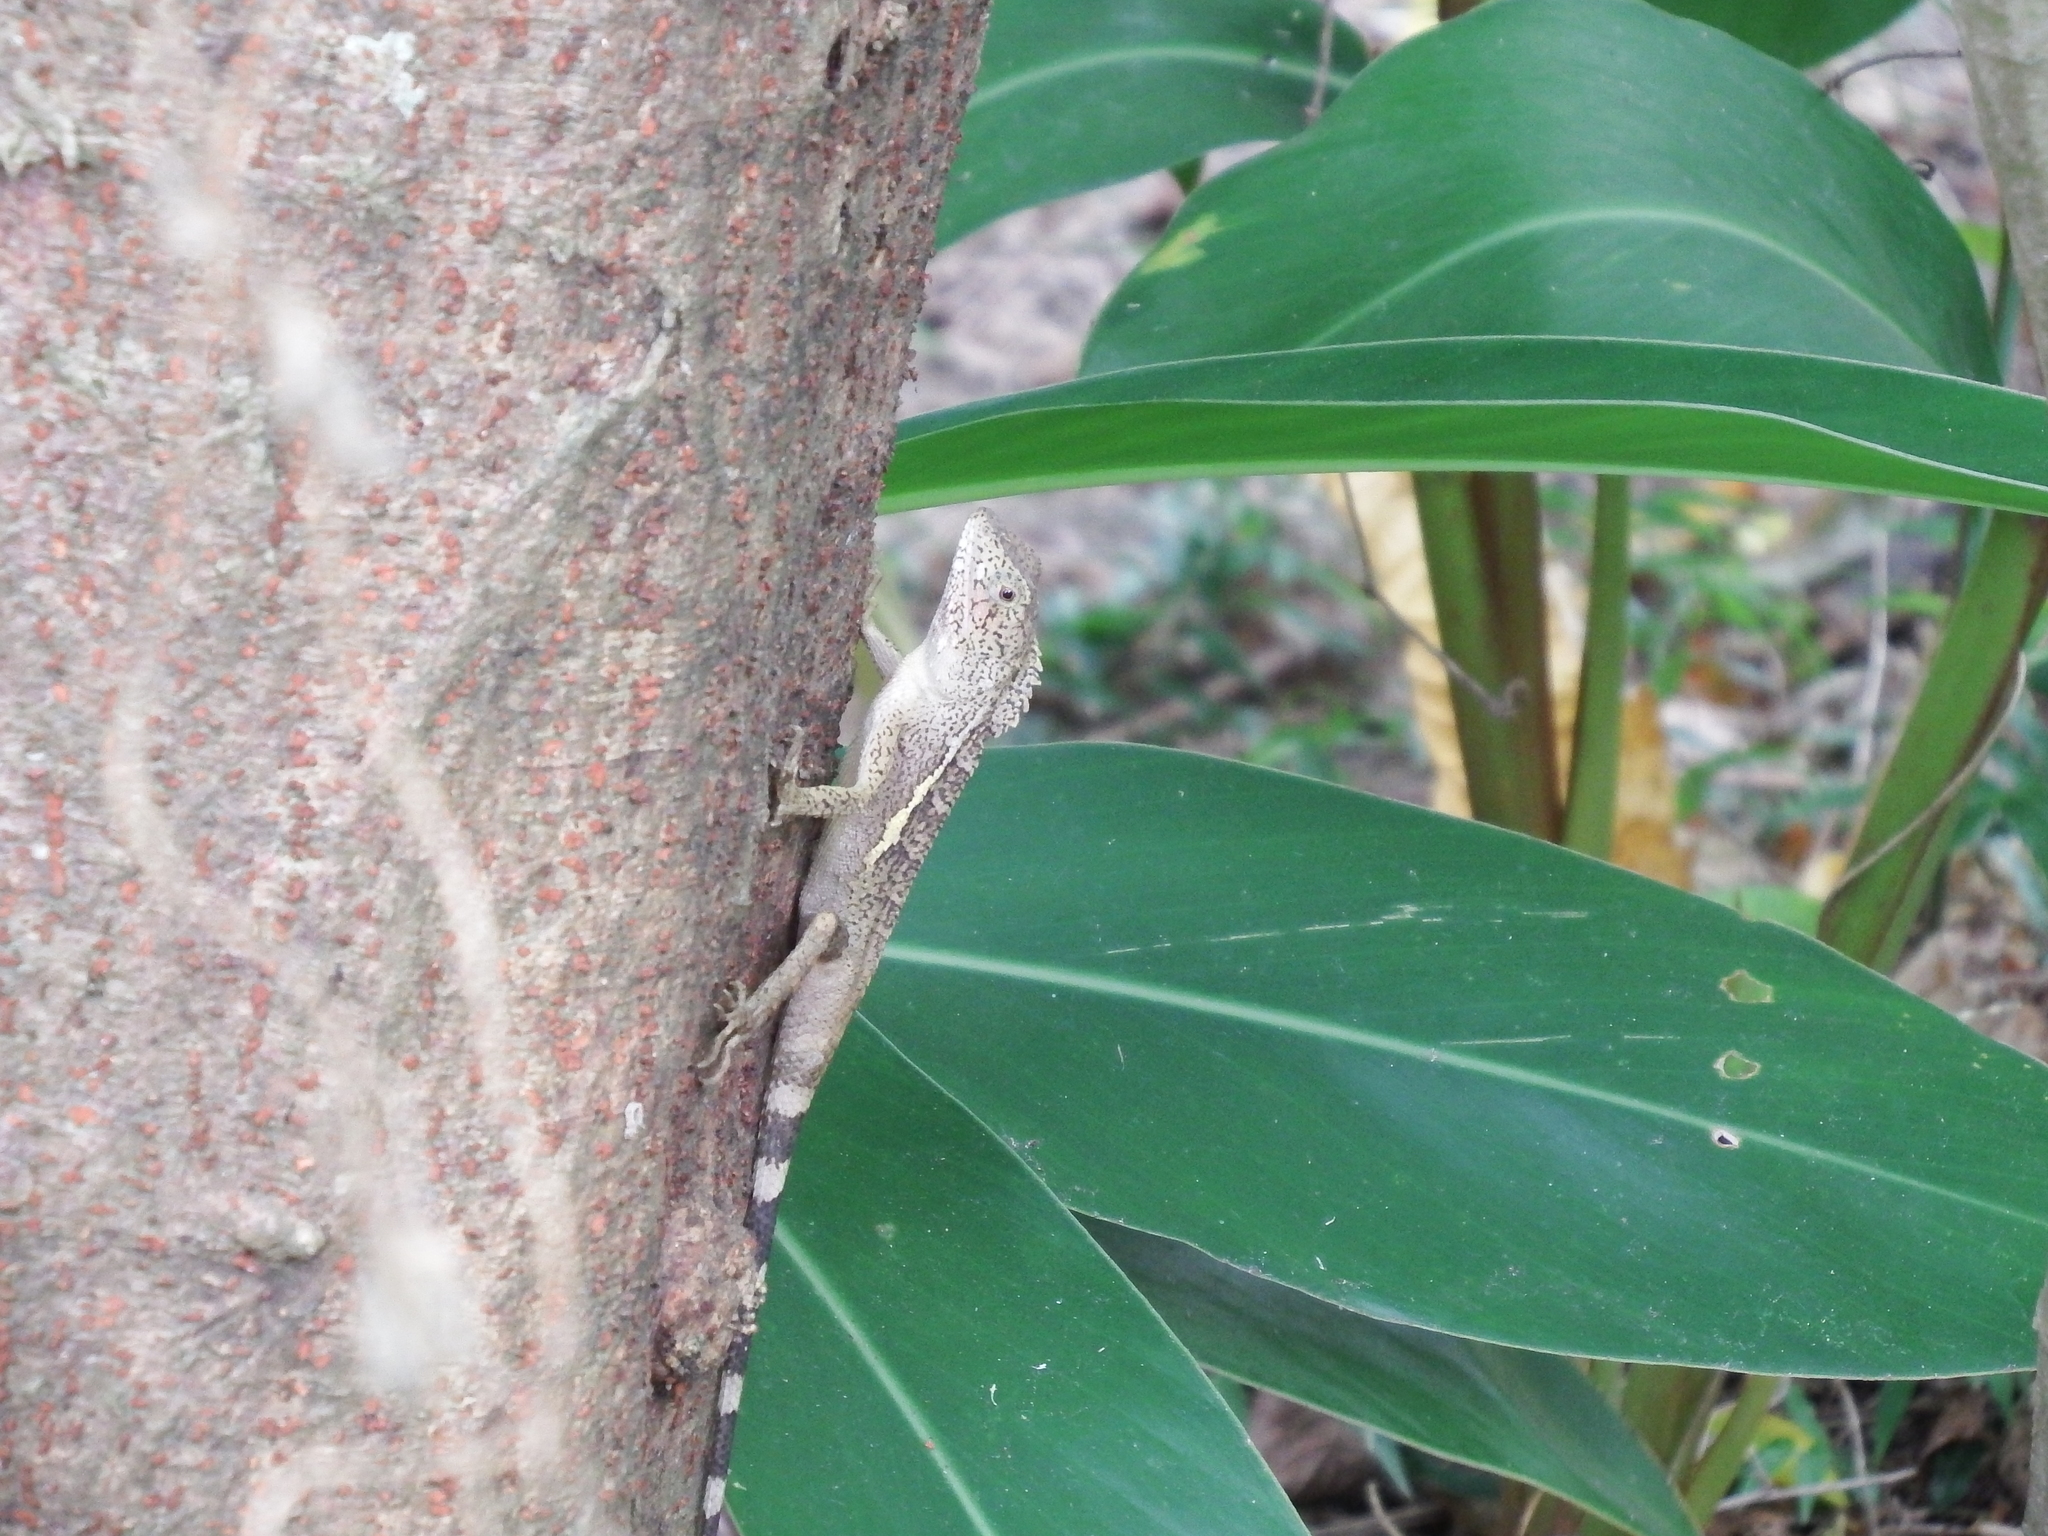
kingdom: Animalia
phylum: Chordata
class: Squamata
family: Agamidae
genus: Diploderma
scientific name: Diploderma swinhonis
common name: Taiwan japalure
